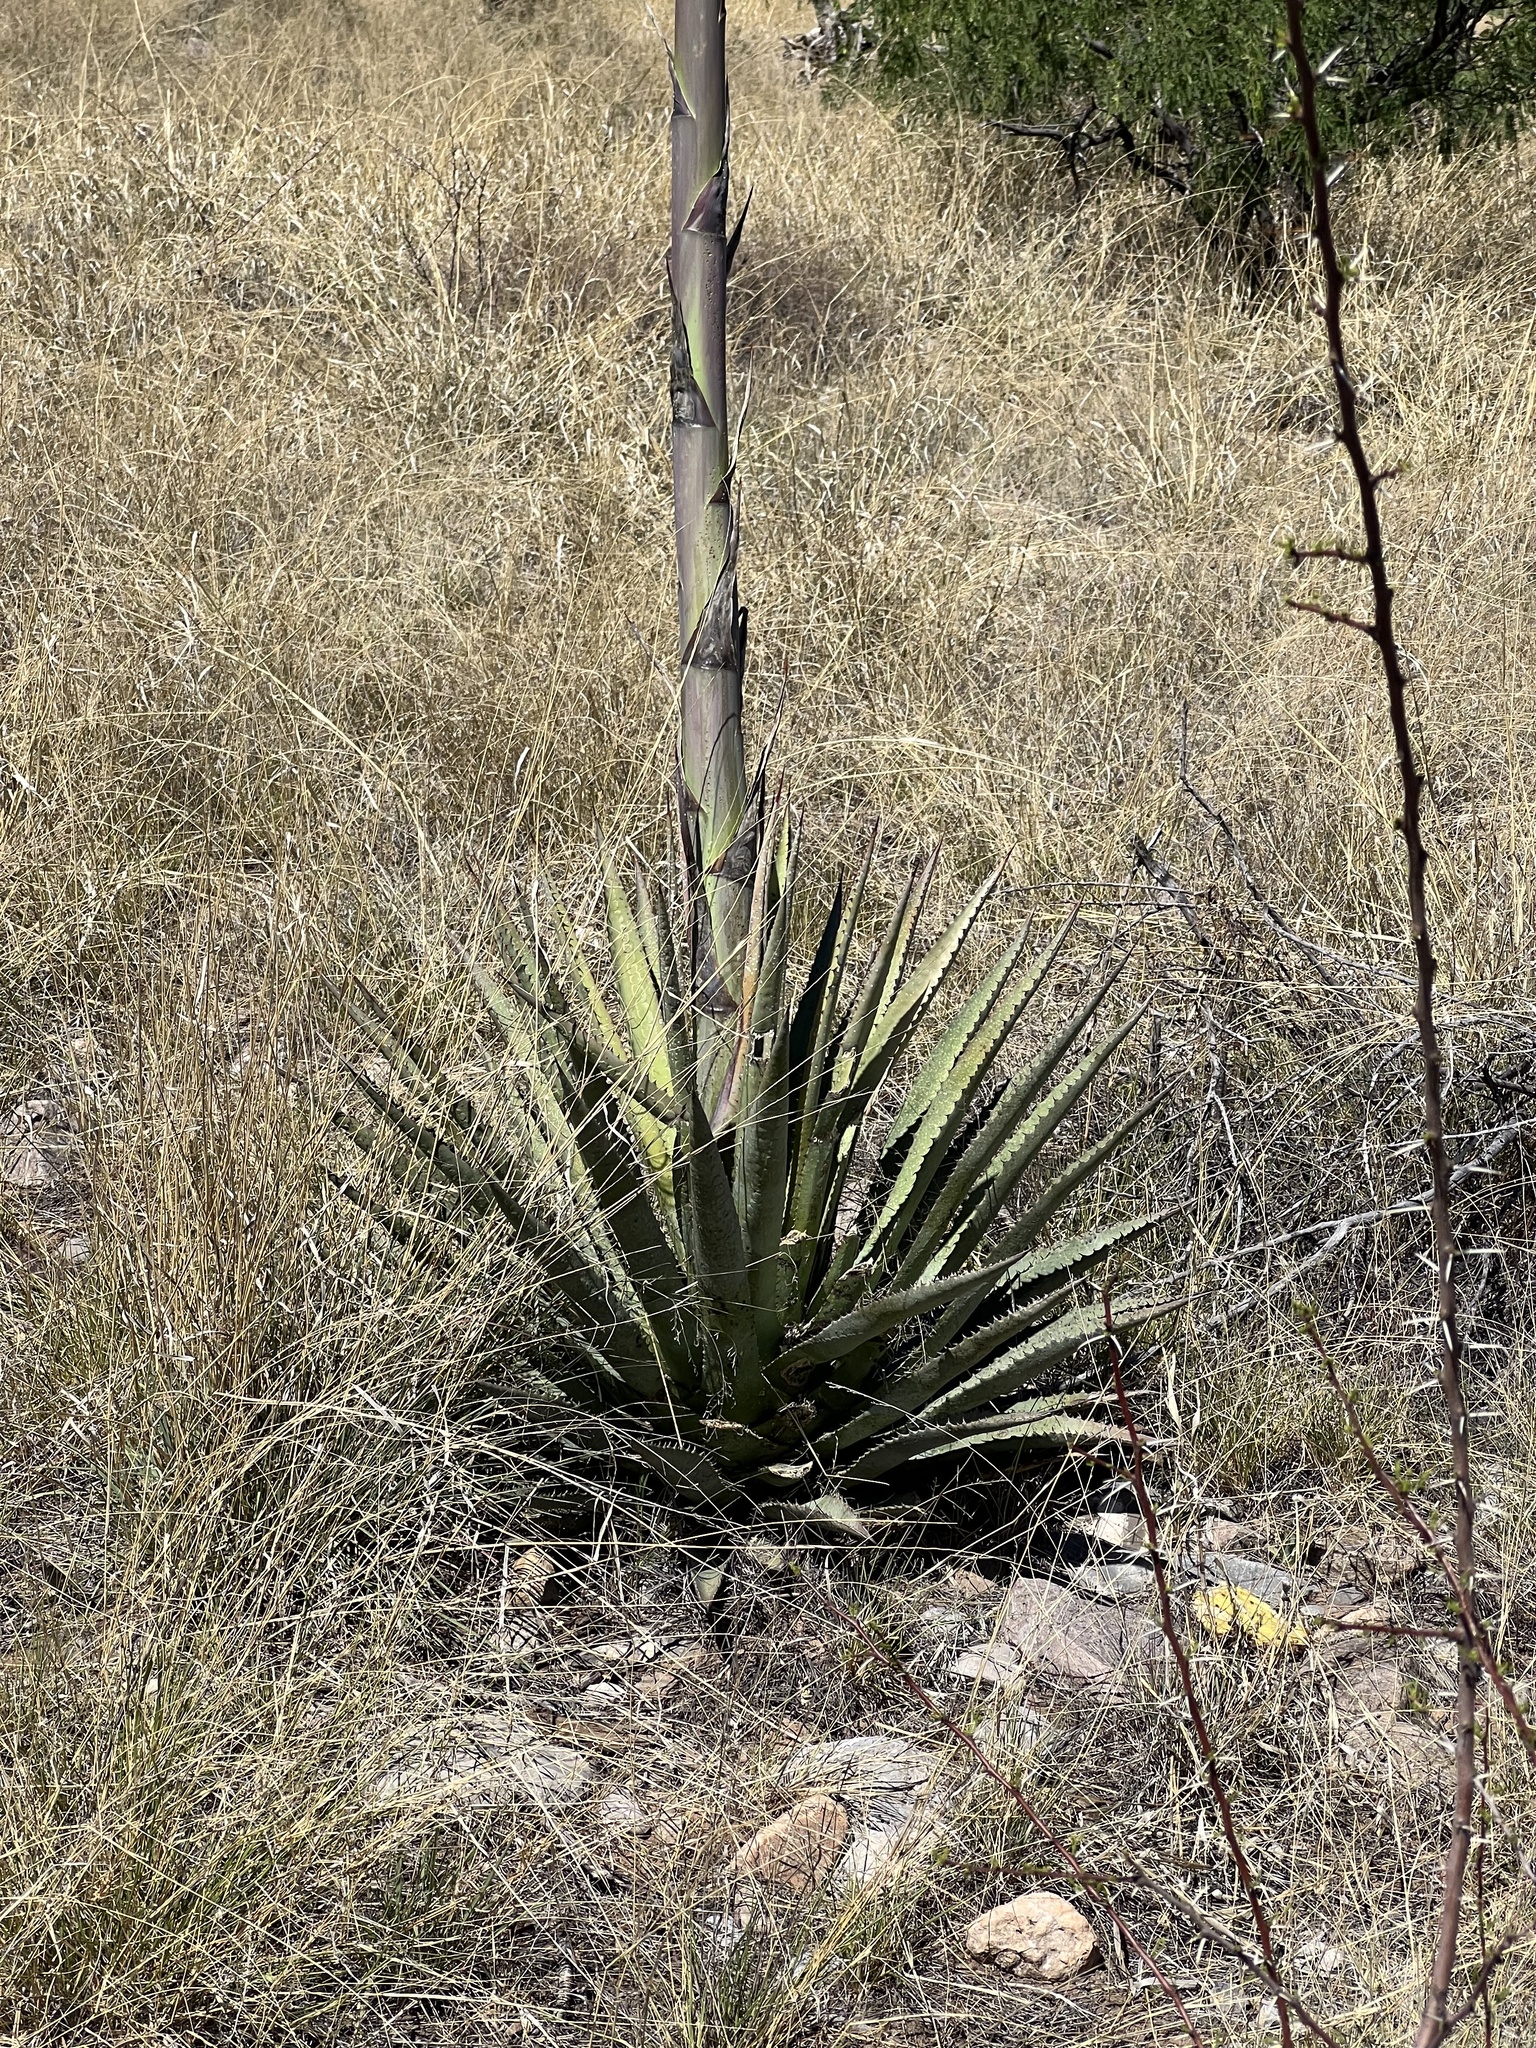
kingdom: Plantae
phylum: Tracheophyta
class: Liliopsida
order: Asparagales
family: Asparagaceae
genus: Agave
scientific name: Agave palmeri
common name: Palmer agave
